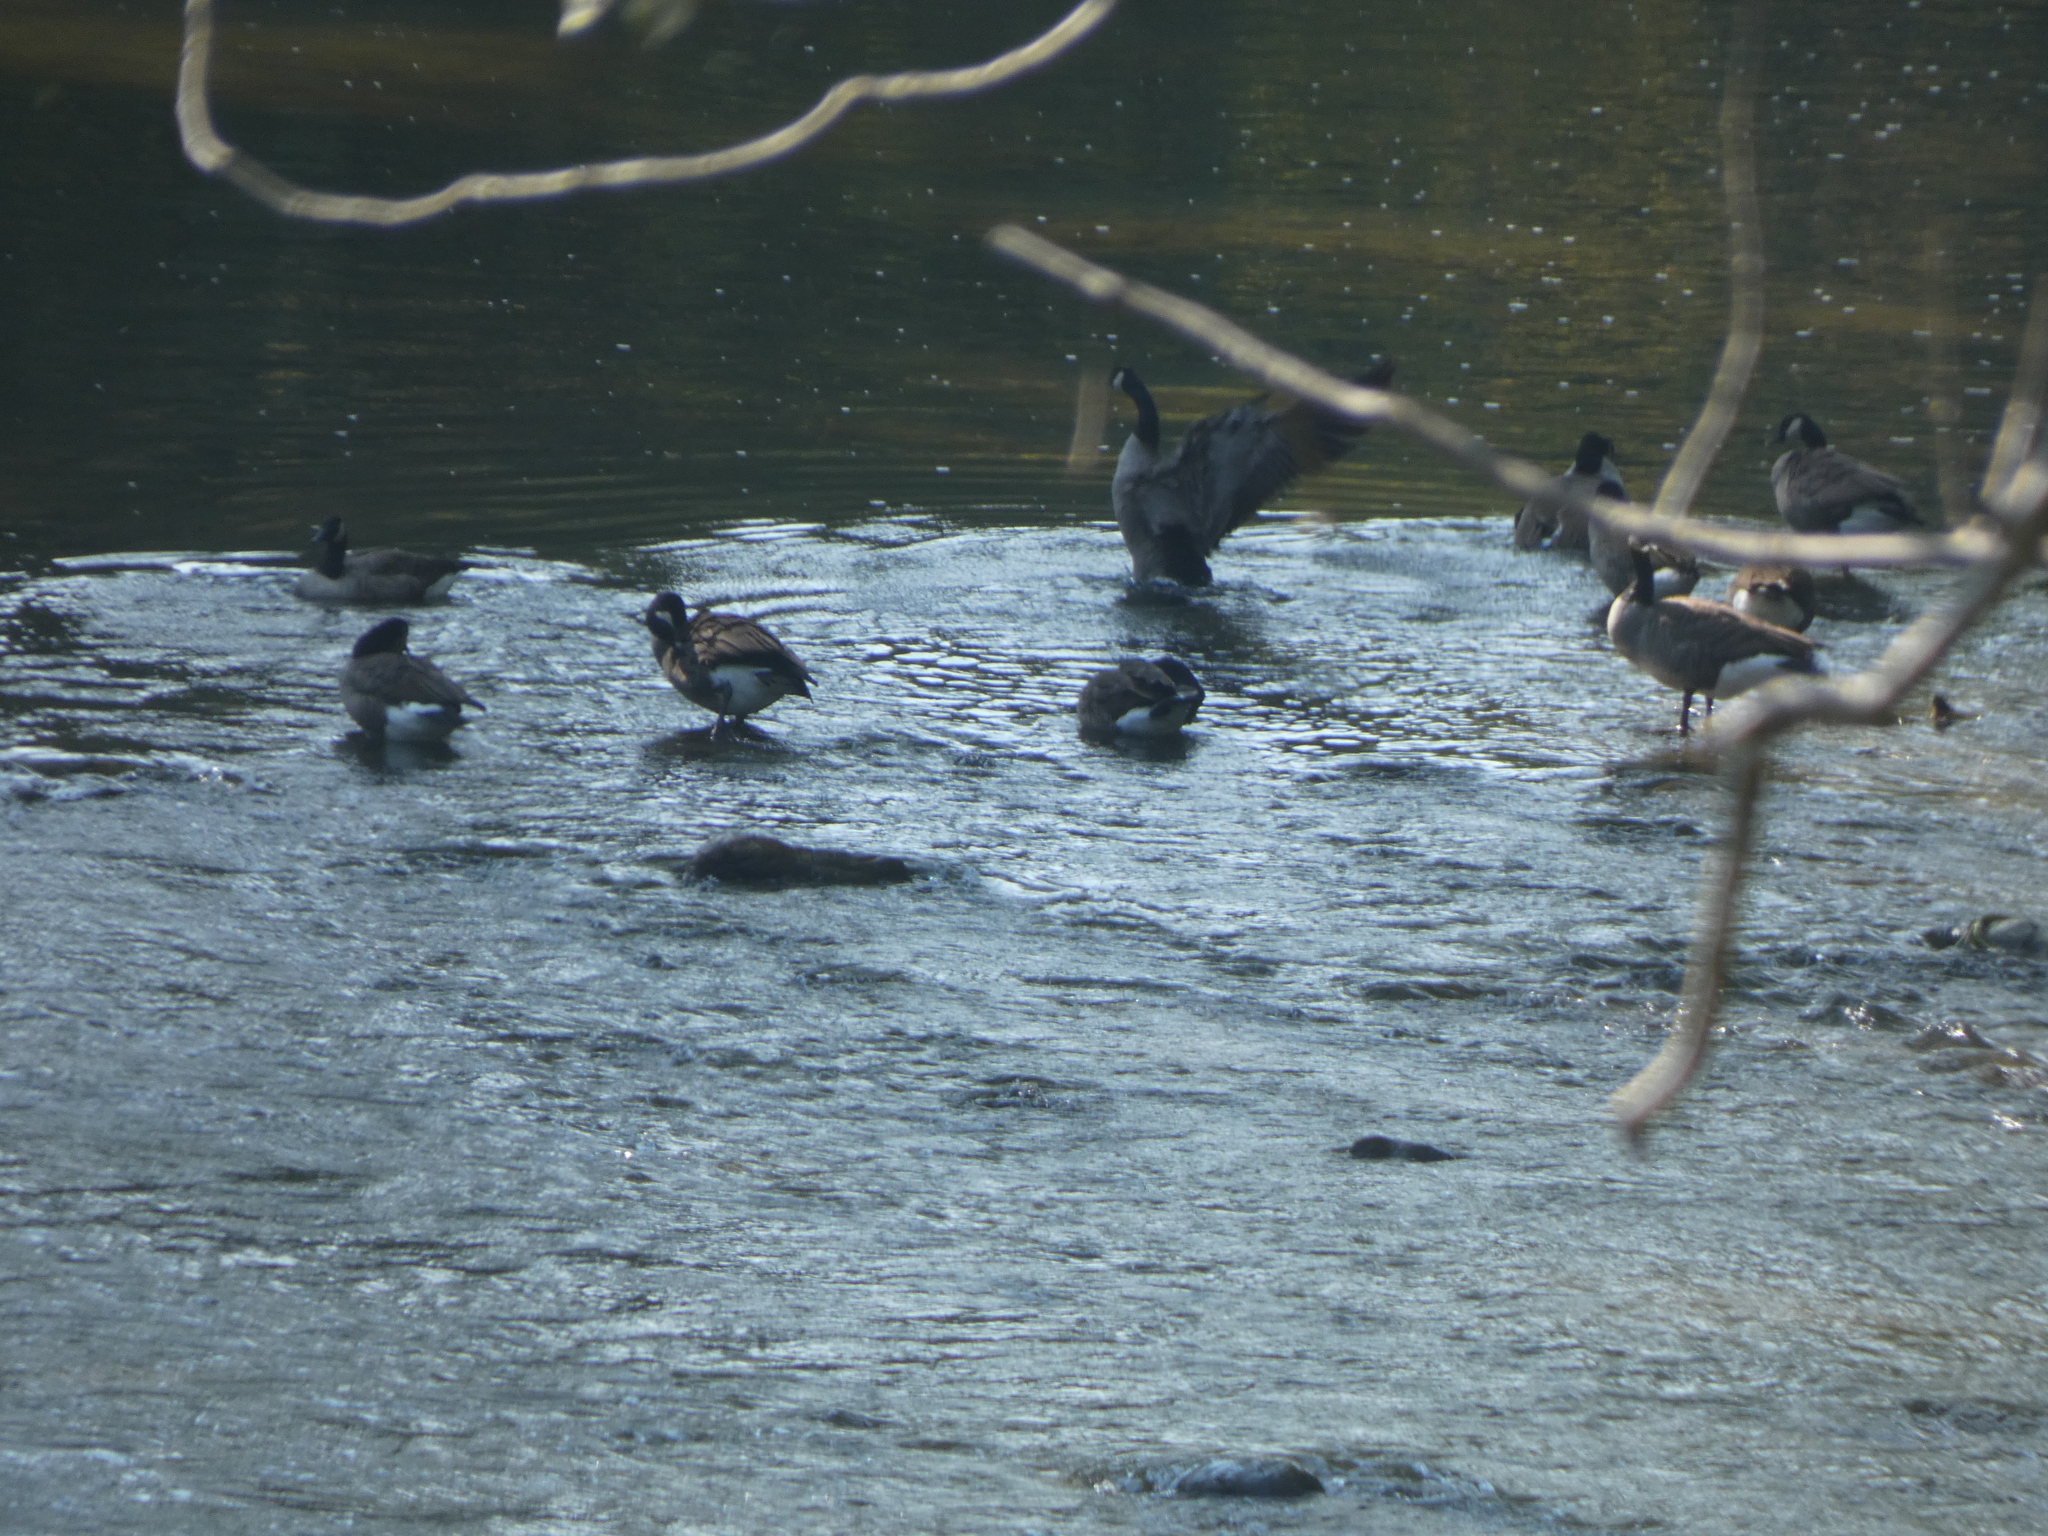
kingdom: Animalia
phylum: Chordata
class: Aves
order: Anseriformes
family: Anatidae
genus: Branta
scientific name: Branta canadensis
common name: Canada goose
